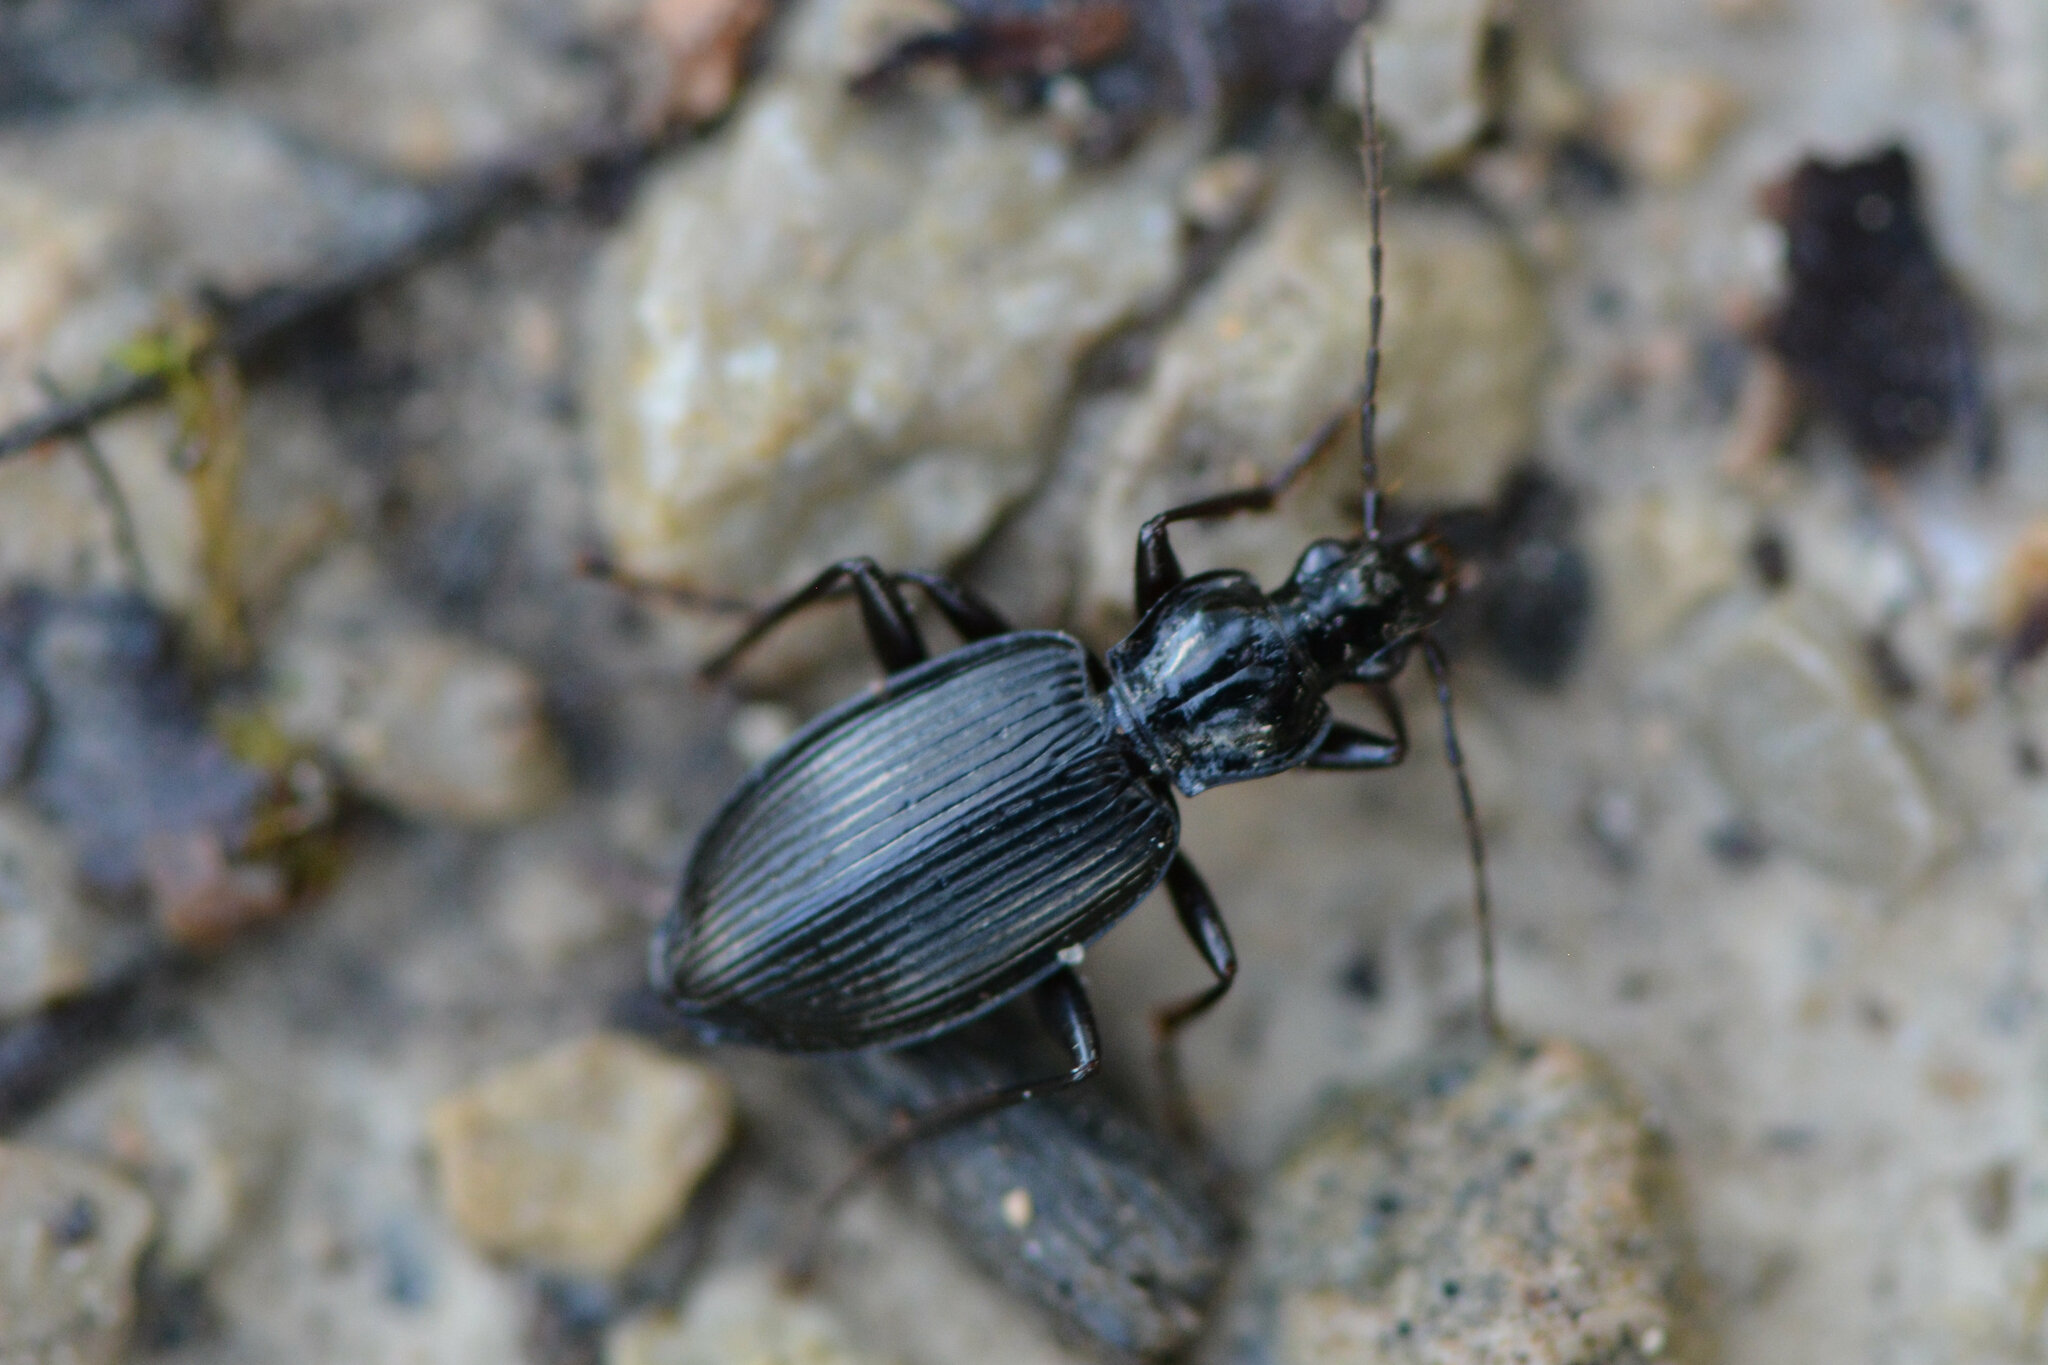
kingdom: Animalia
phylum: Arthropoda
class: Insecta
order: Coleoptera
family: Carabidae
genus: Platynus
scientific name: Platynus assimilis
